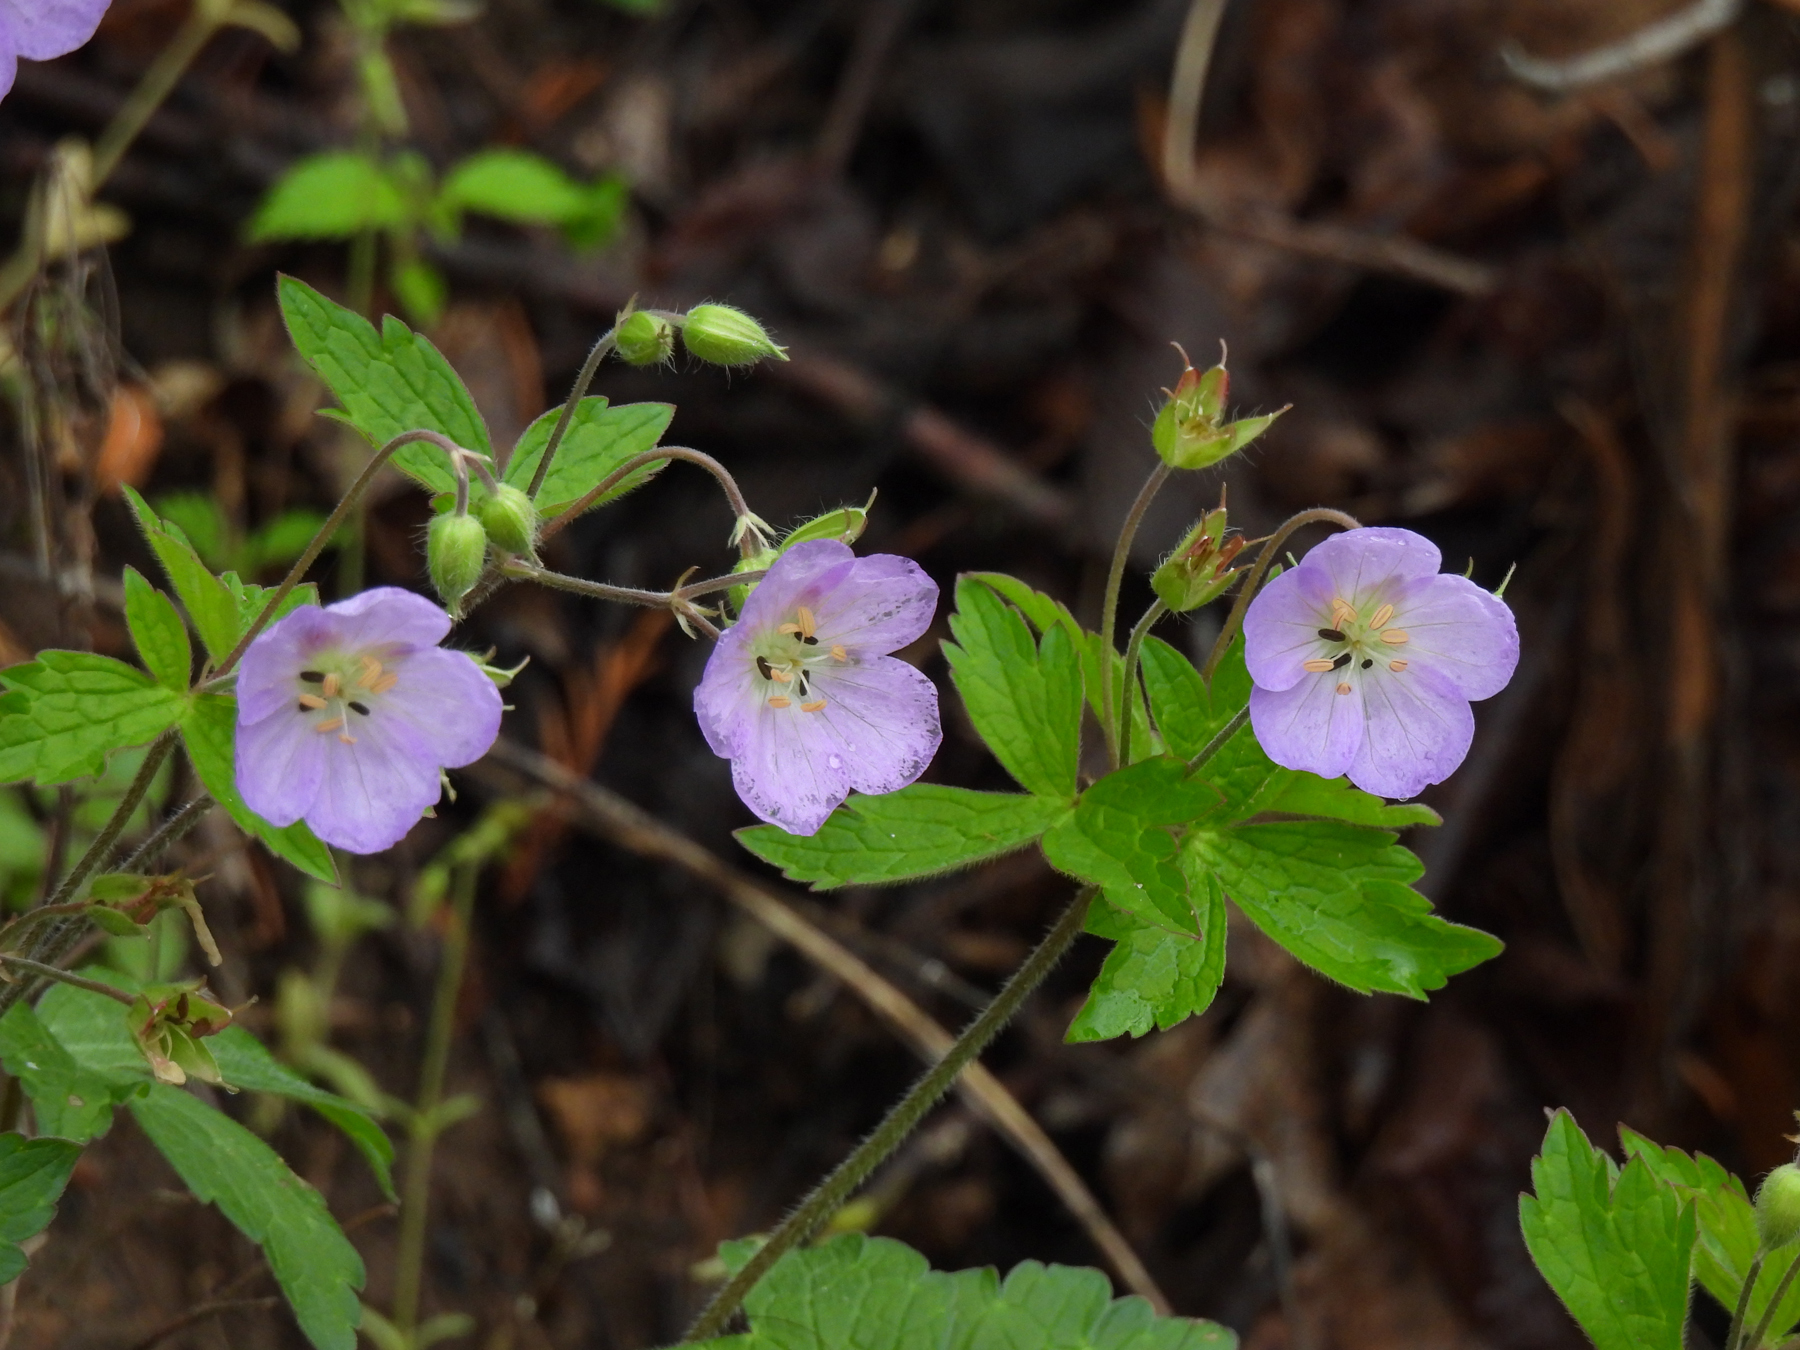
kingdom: Plantae
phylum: Tracheophyta
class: Magnoliopsida
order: Geraniales
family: Geraniaceae
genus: Geranium
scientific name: Geranium maculatum
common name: Spotted geranium
